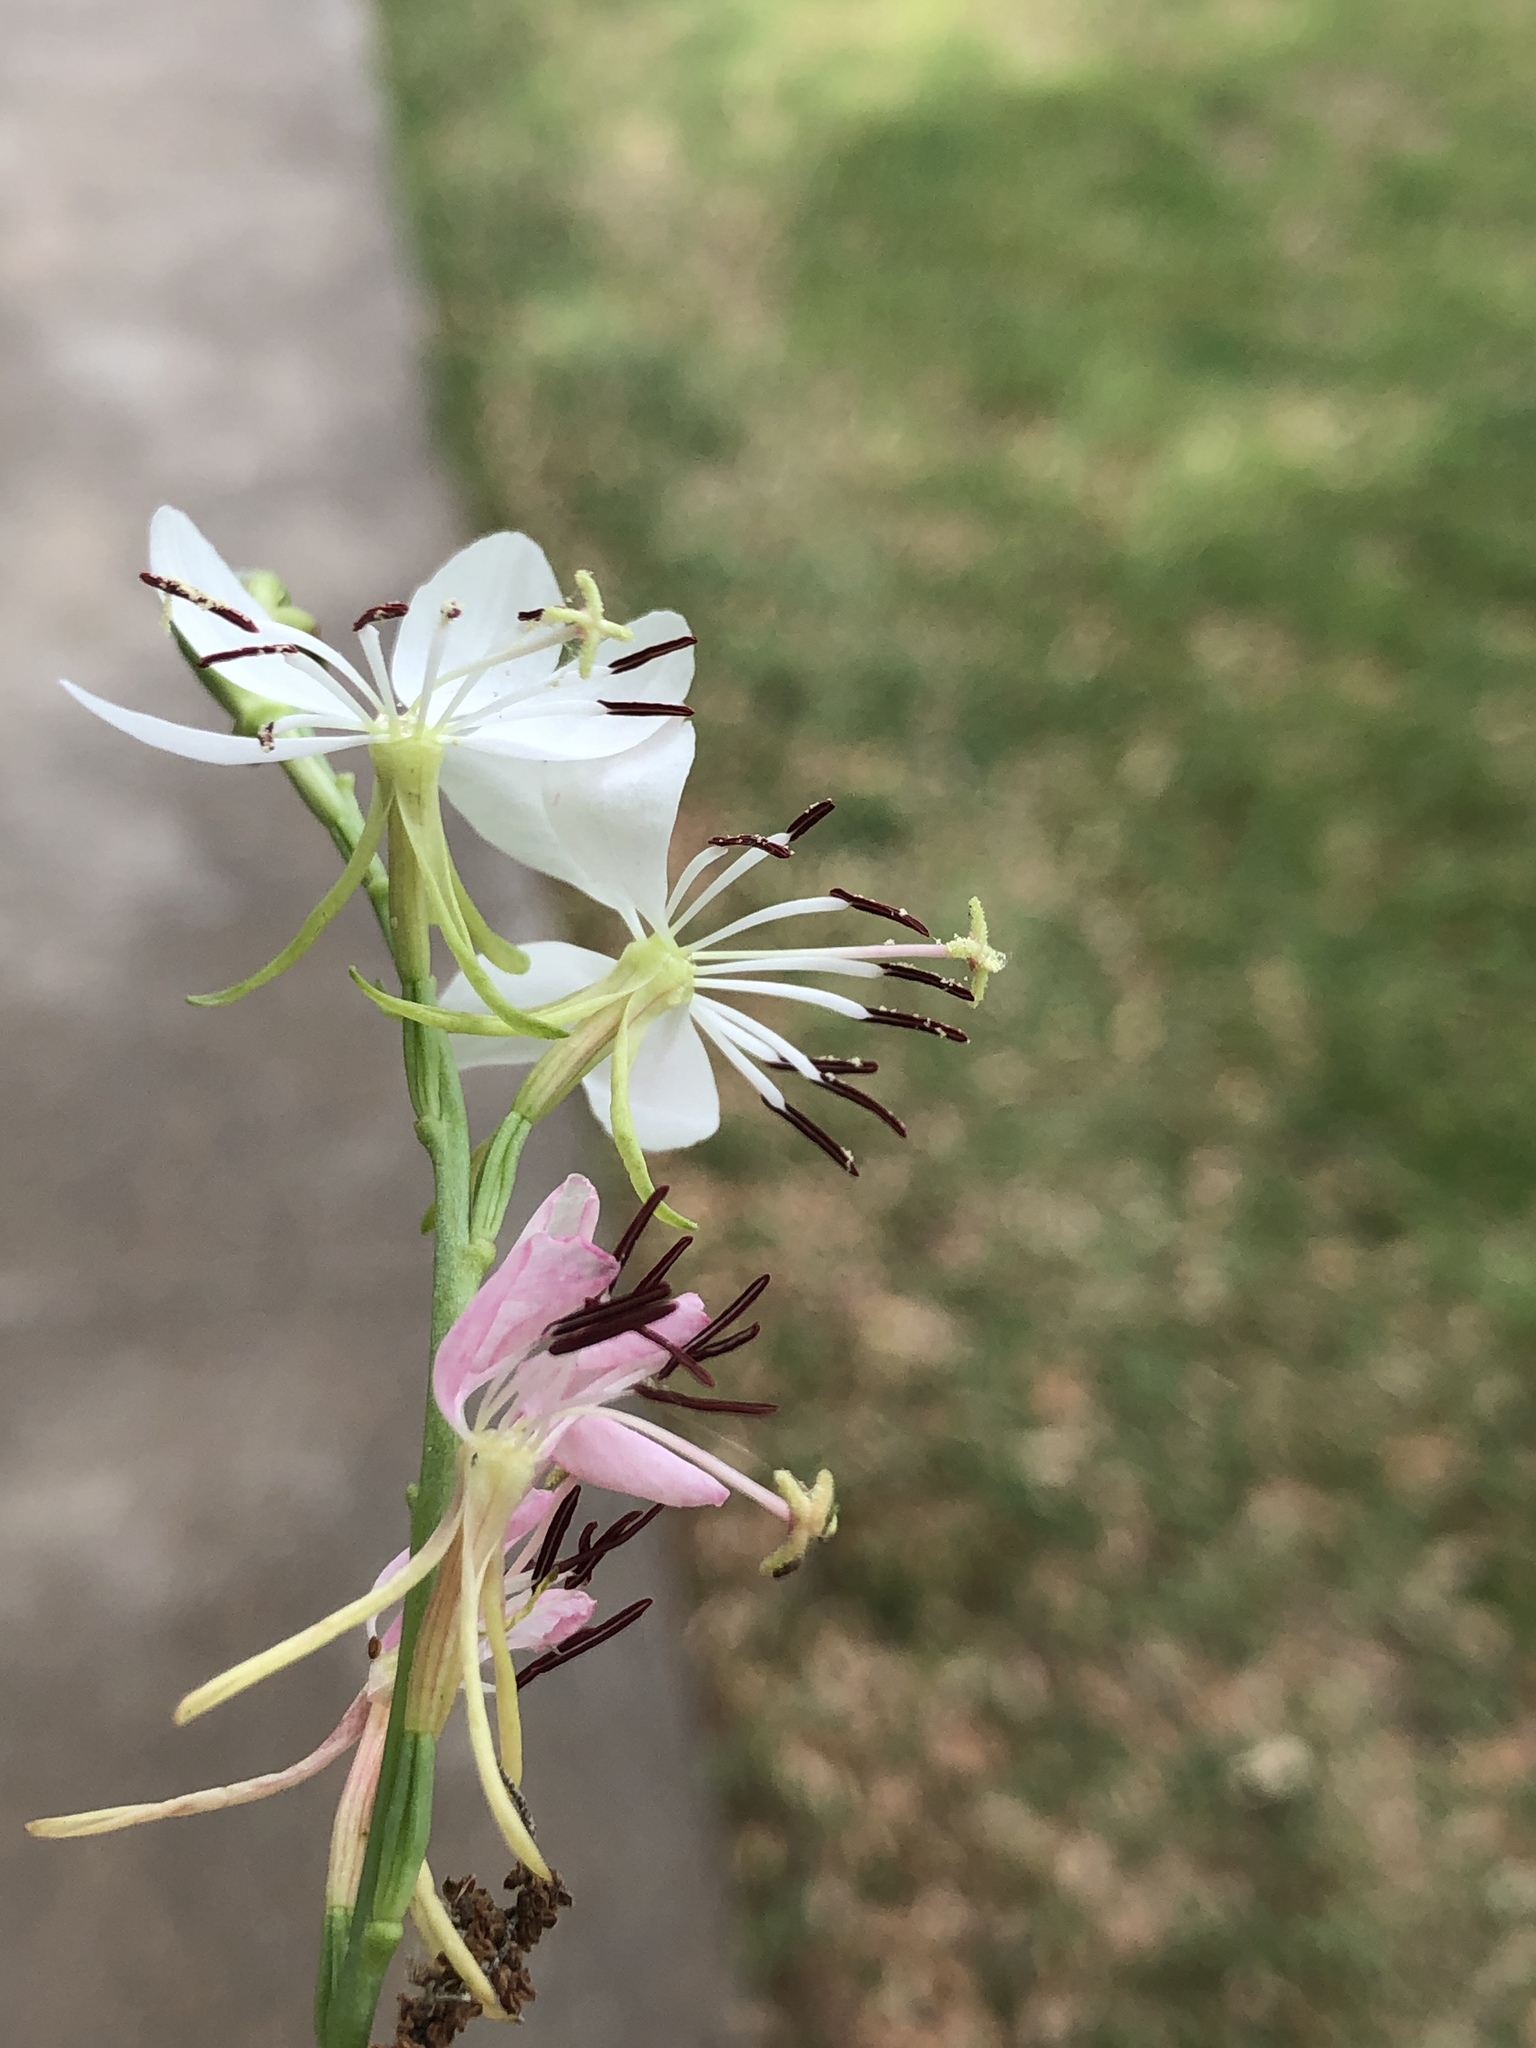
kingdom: Plantae
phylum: Tracheophyta
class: Magnoliopsida
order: Myrtales
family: Onagraceae
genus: Oenothera
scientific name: Oenothera suffulta
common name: Kisses
